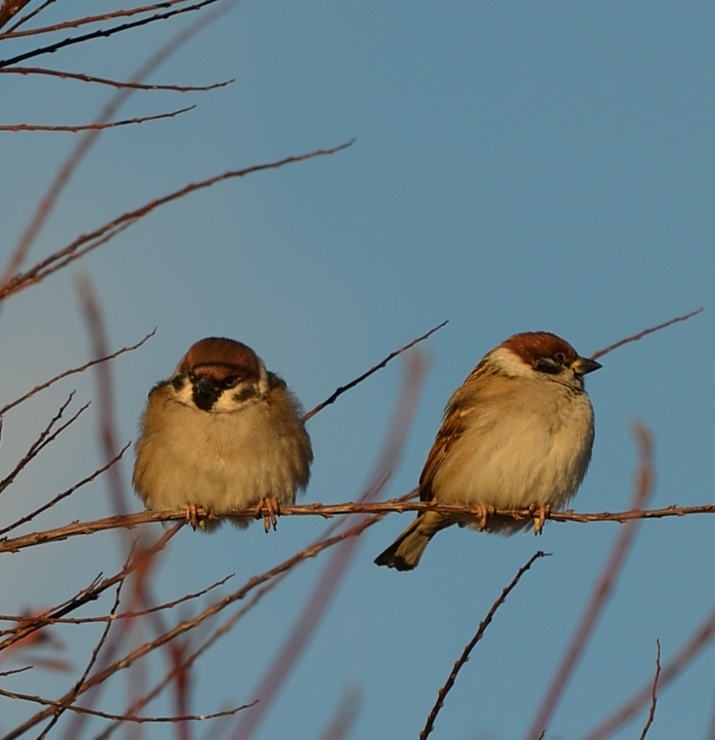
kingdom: Animalia
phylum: Chordata
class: Aves
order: Passeriformes
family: Passeridae
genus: Passer
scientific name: Passer montanus
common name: Eurasian tree sparrow
